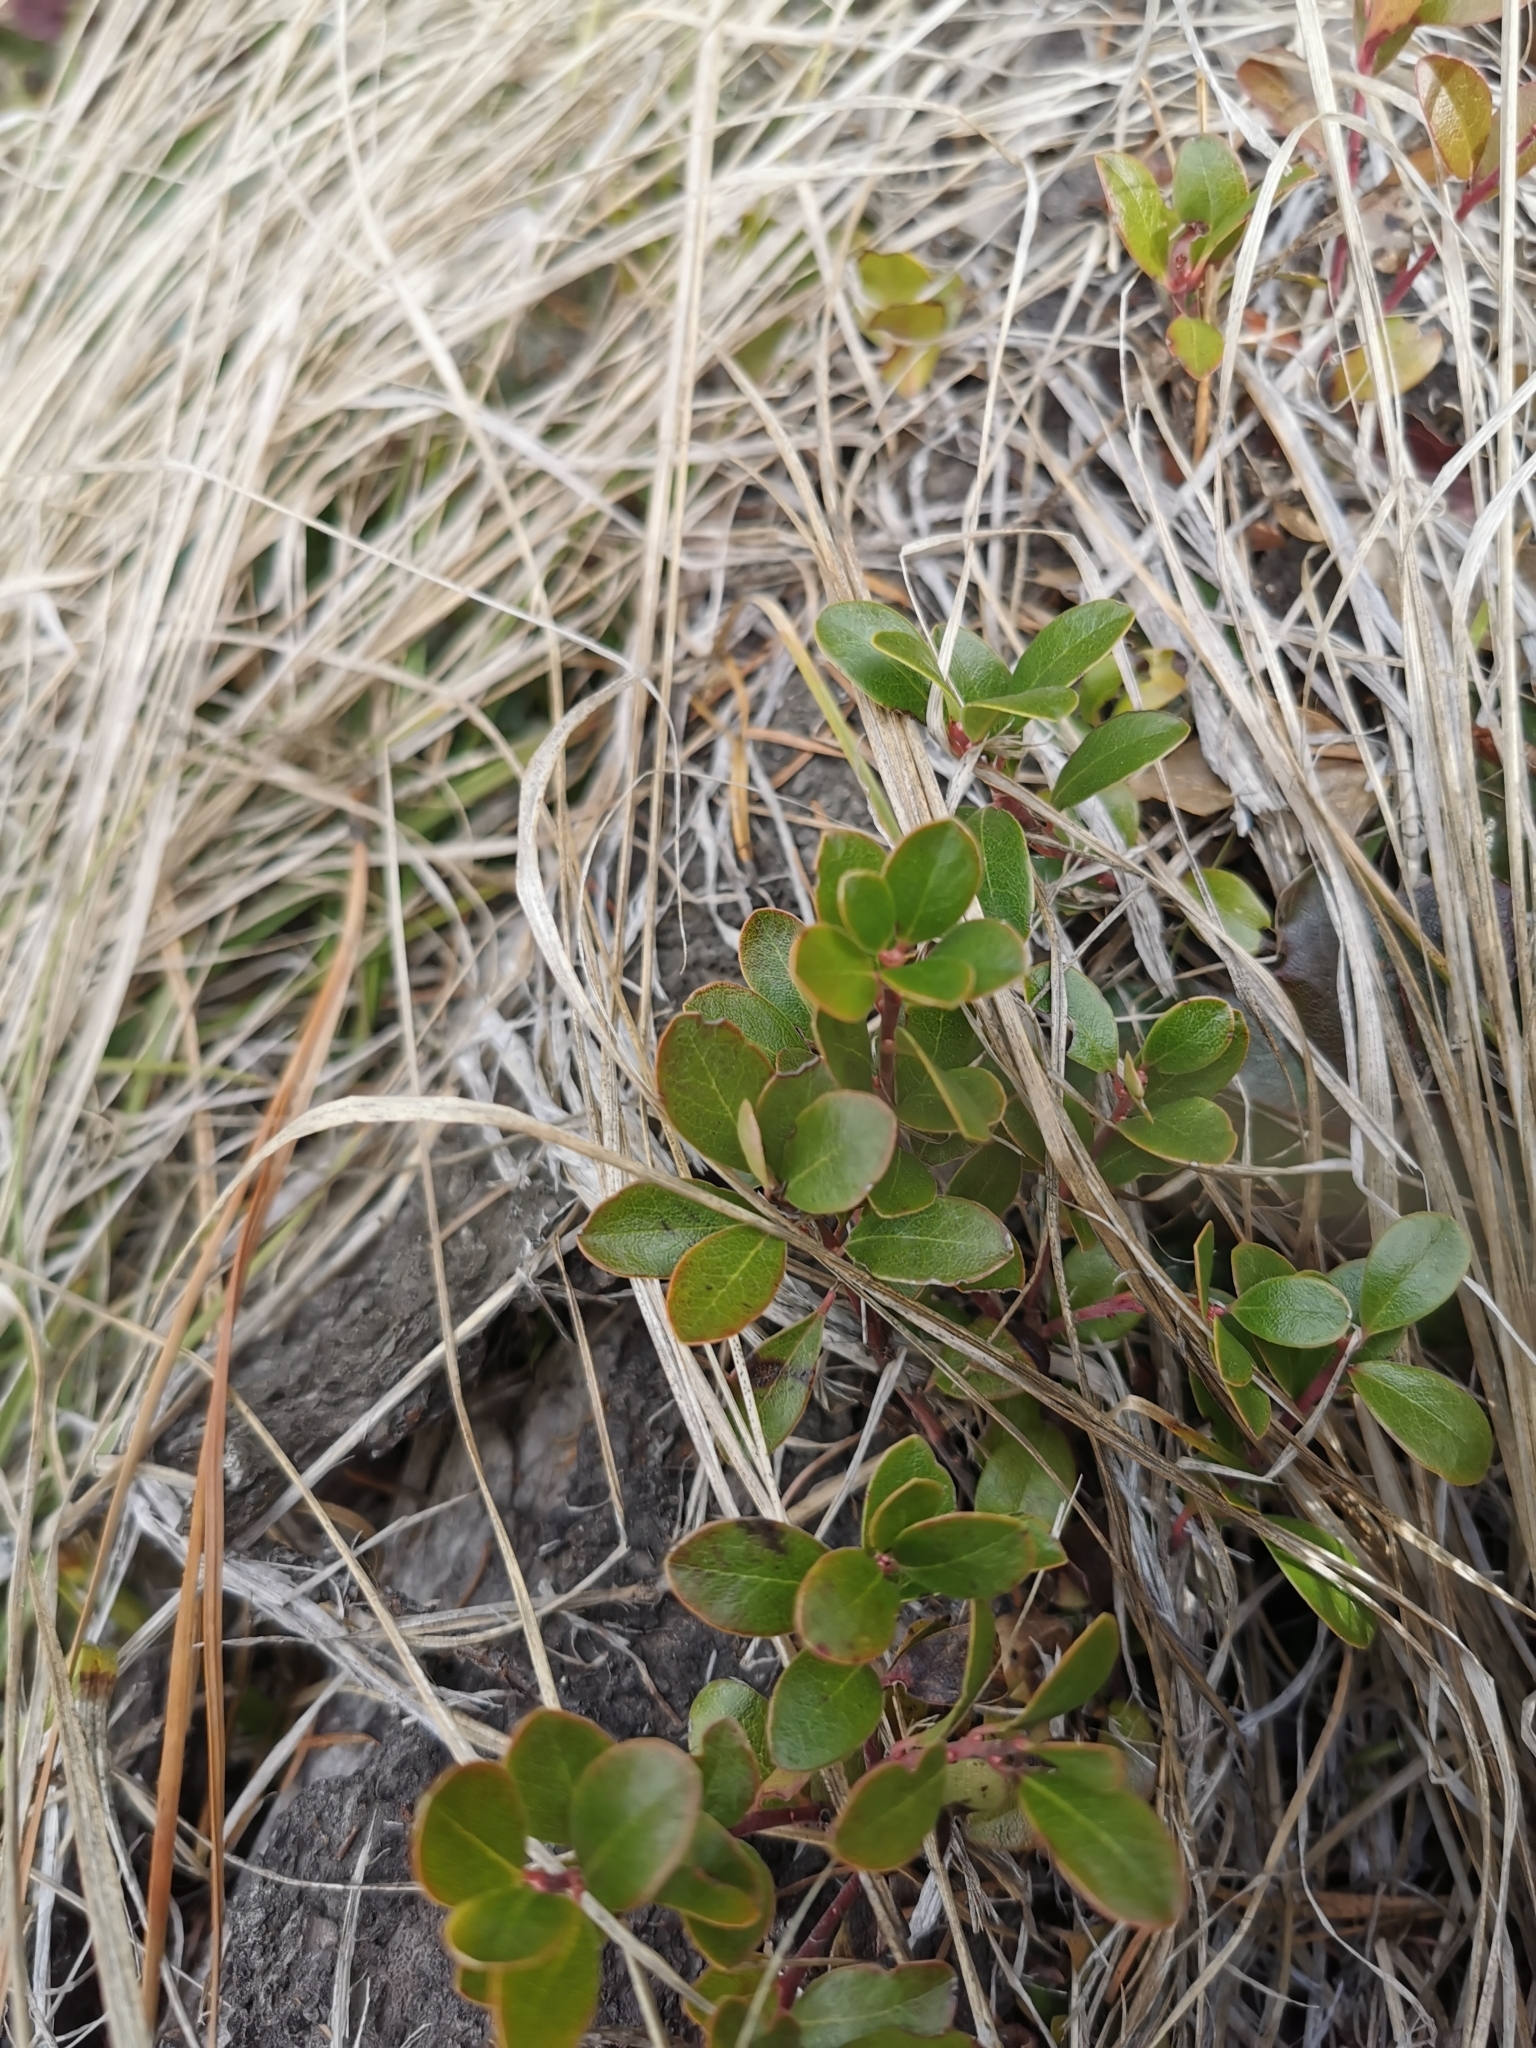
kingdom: Plantae
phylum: Tracheophyta
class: Magnoliopsida
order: Ericales
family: Ericaceae
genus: Arctostaphylos
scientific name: Arctostaphylos uva-ursi
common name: Bearberry
